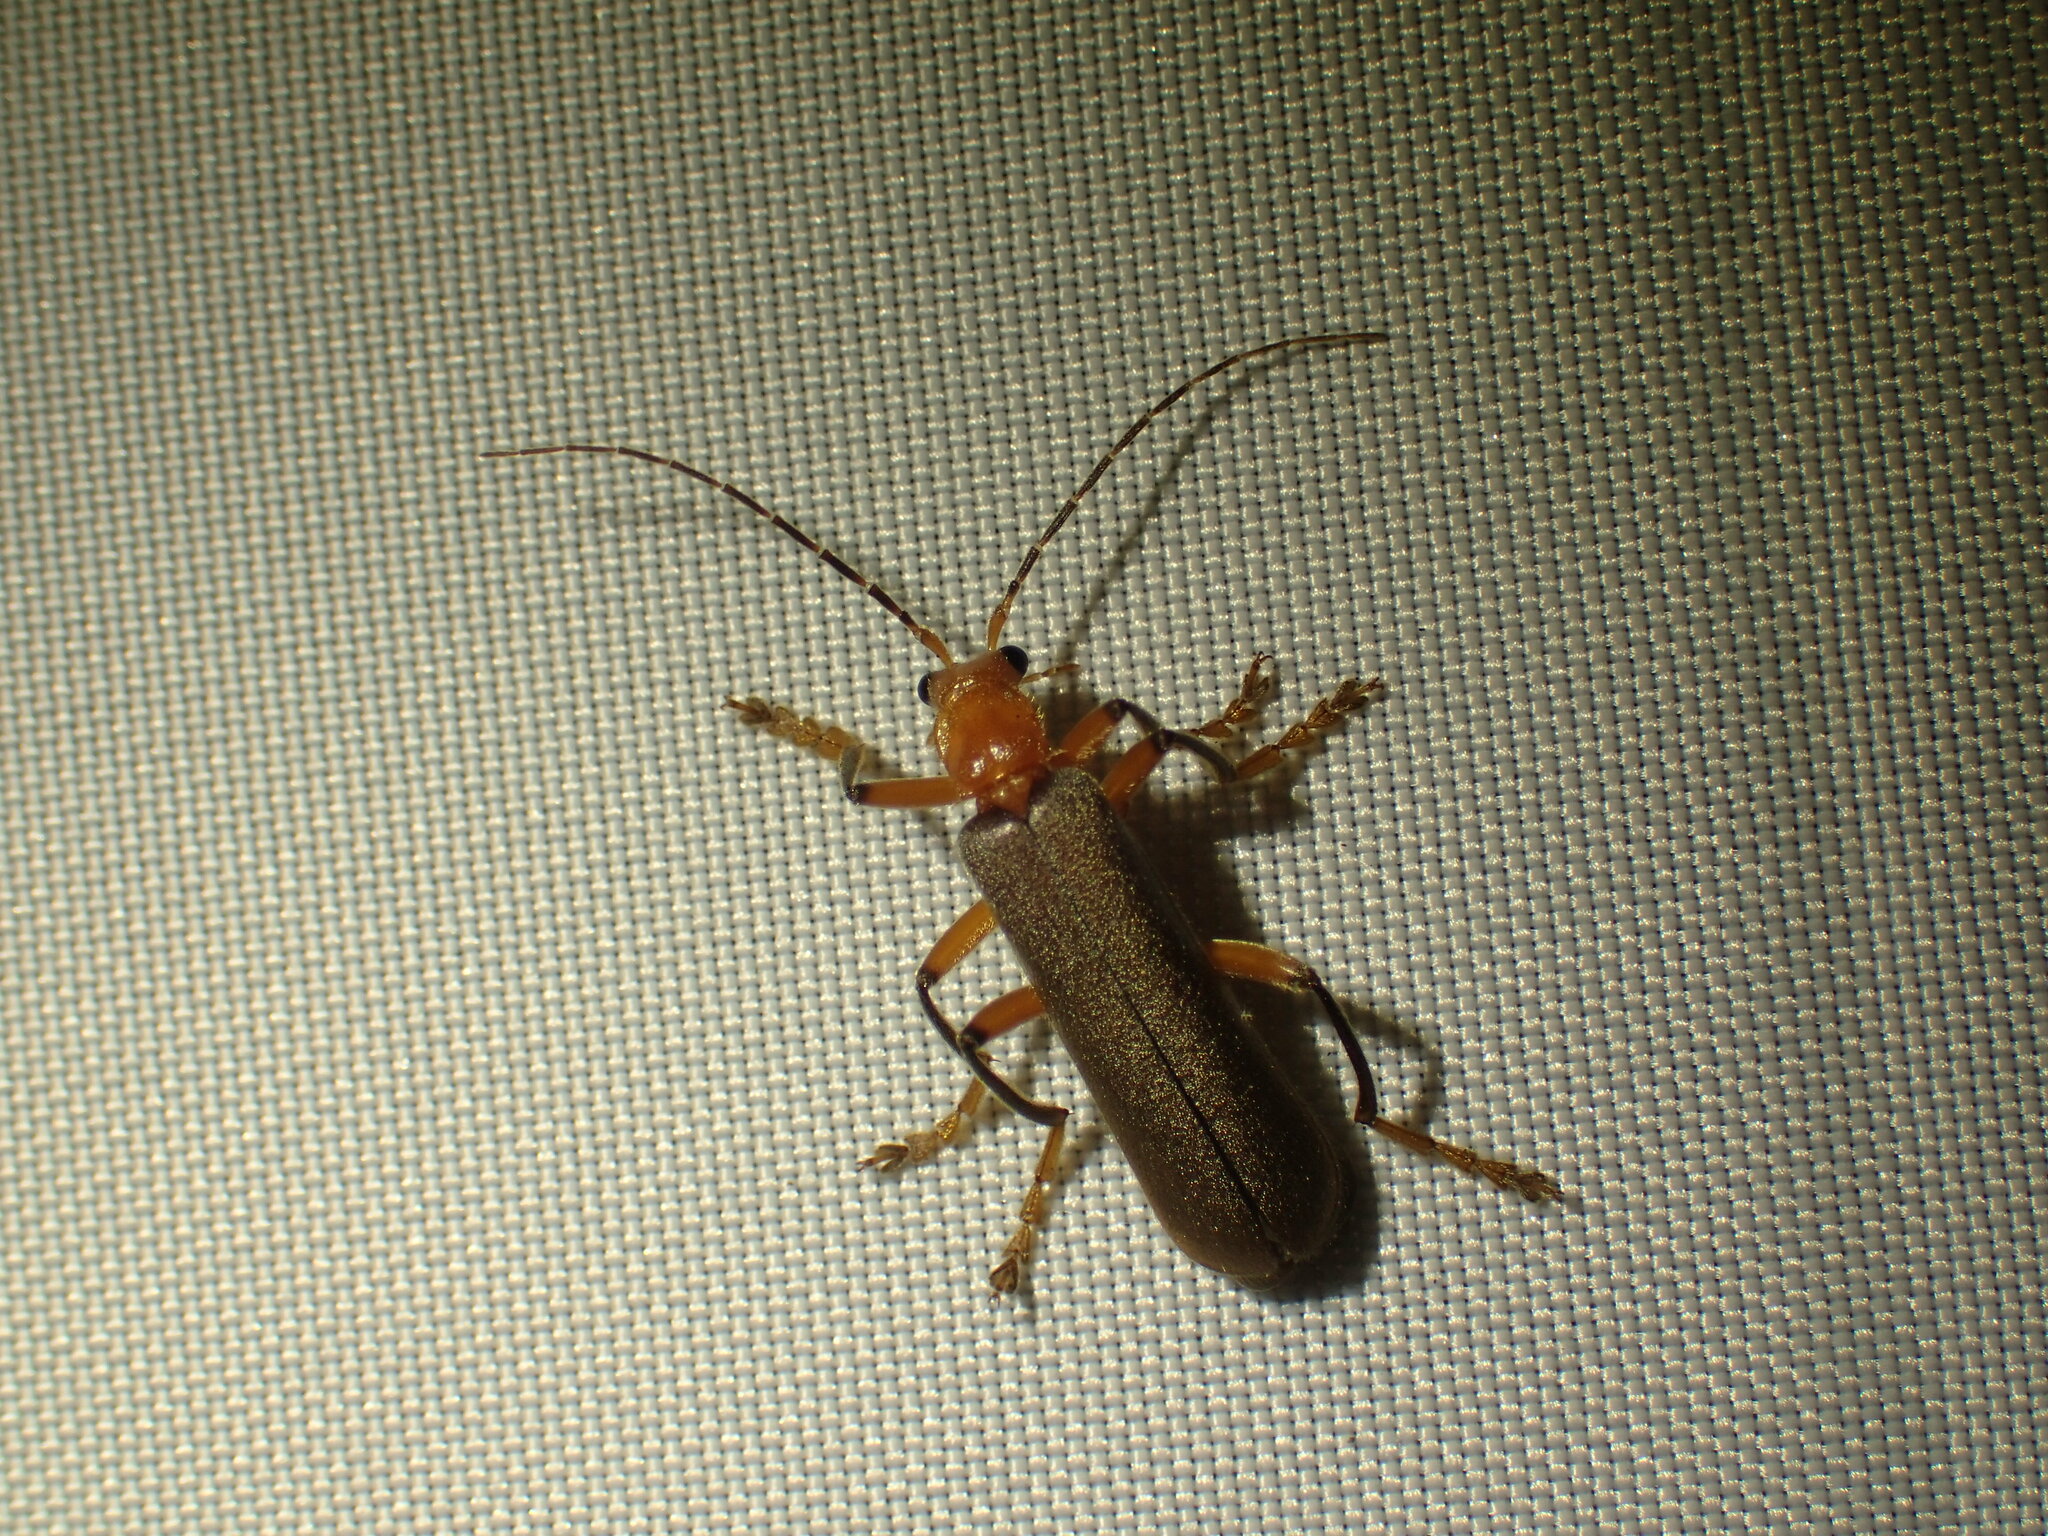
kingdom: Animalia
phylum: Arthropoda
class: Insecta
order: Coleoptera
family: Cantharidae
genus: Pacificanthia
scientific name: Pacificanthia consors
